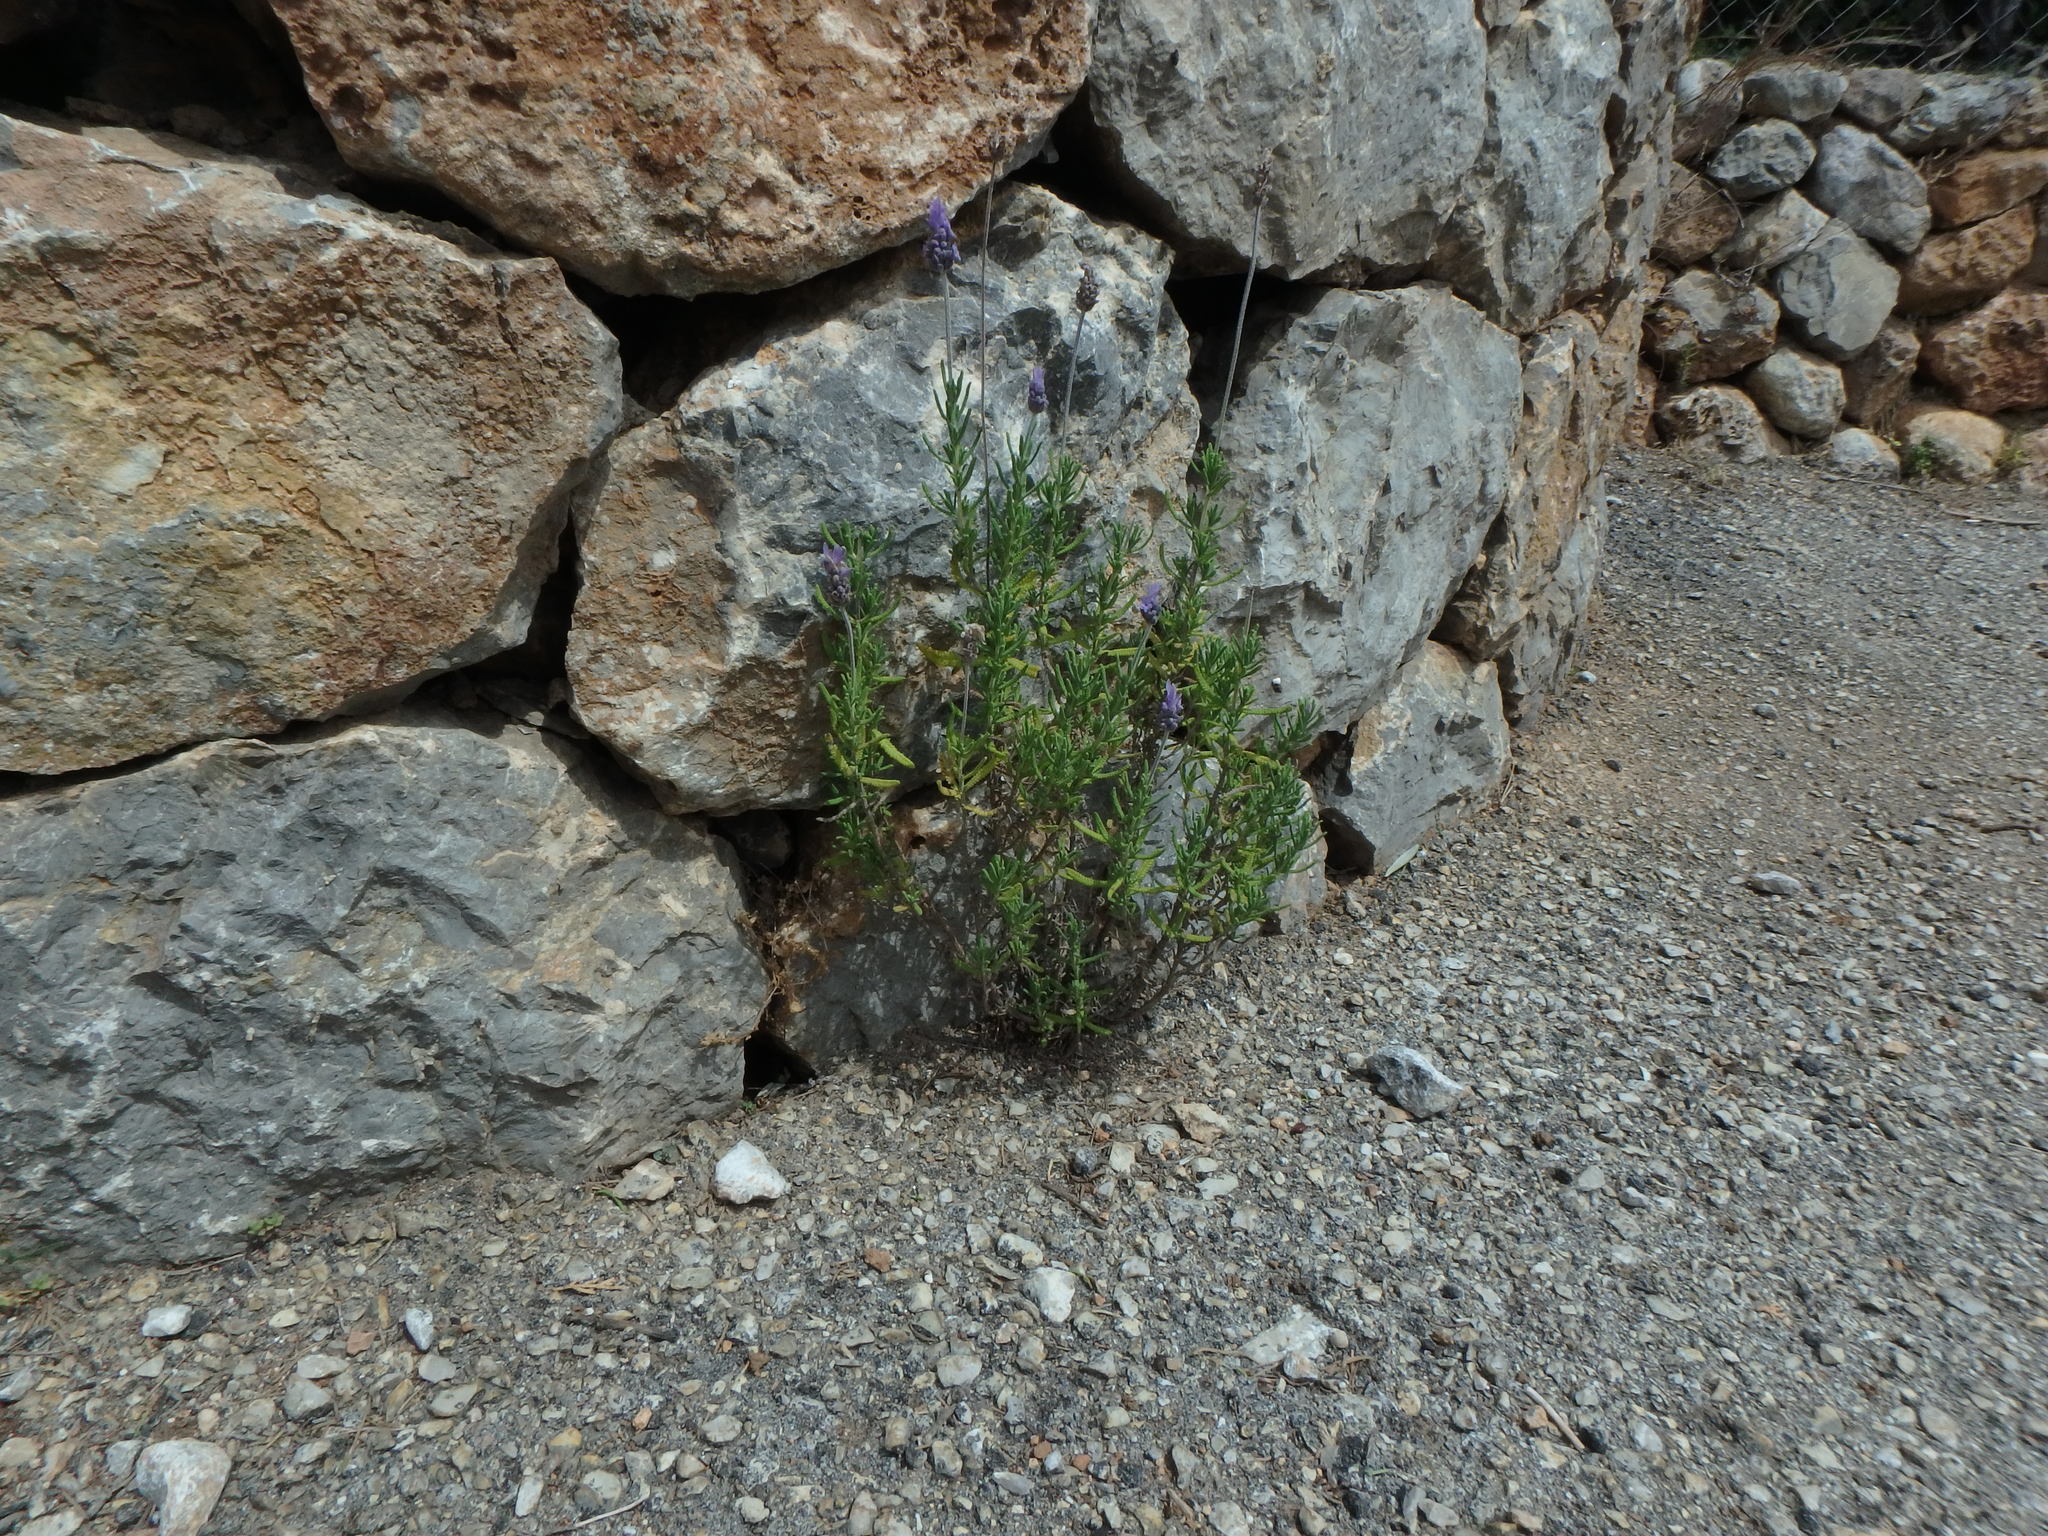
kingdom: Plantae
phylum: Tracheophyta
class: Magnoliopsida
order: Lamiales
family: Lamiaceae
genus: Lavandula
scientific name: Lavandula dentata
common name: French lavender
